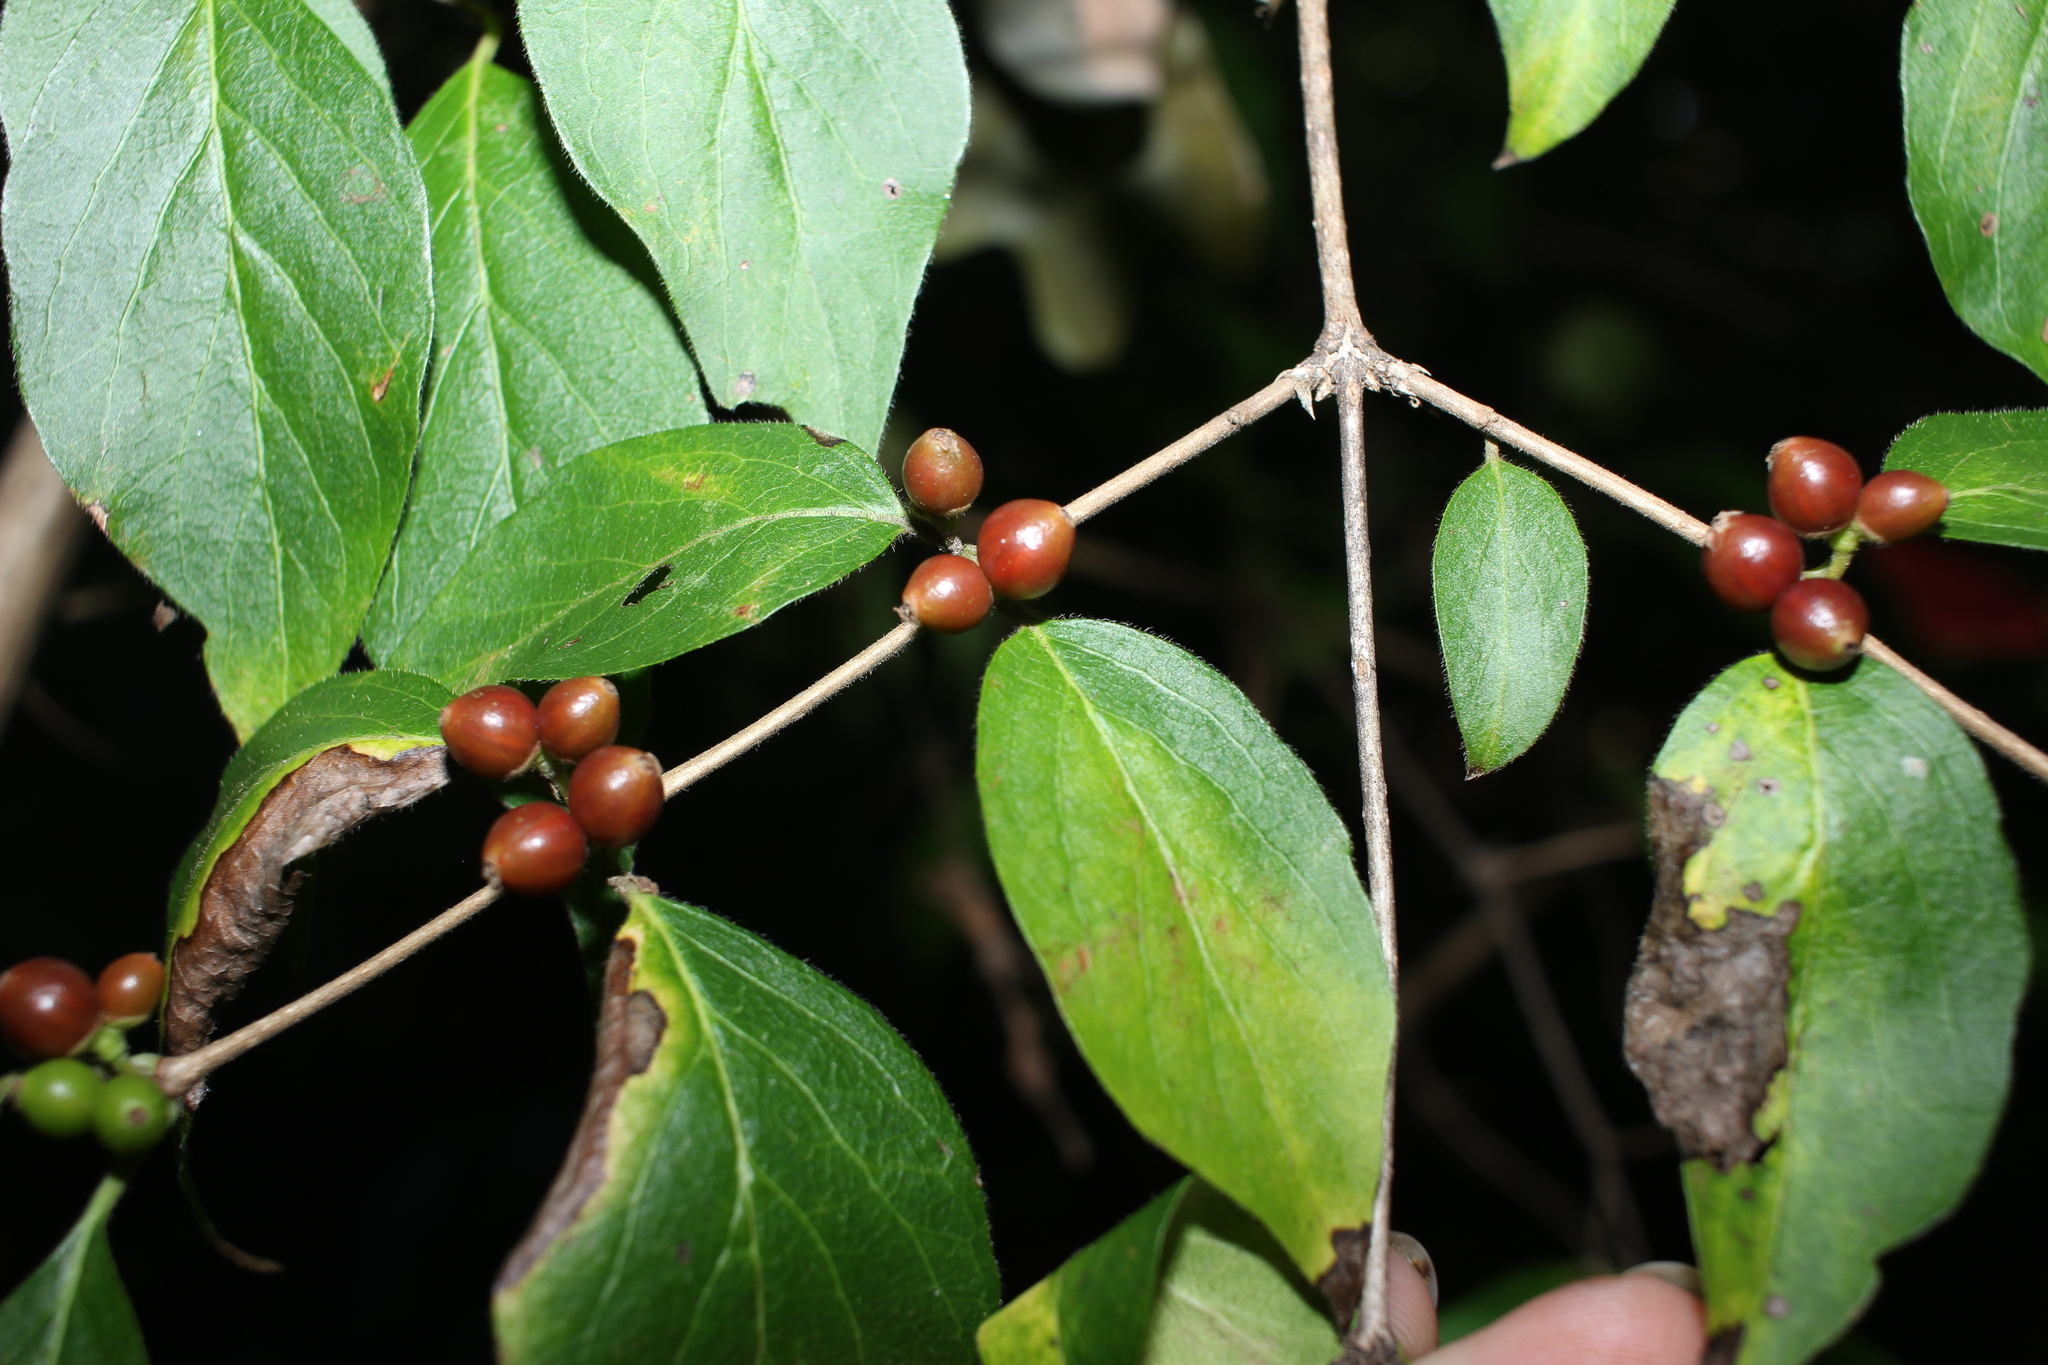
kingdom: Plantae
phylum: Tracheophyta
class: Magnoliopsida
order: Dipsacales
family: Caprifoliaceae
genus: Lonicera
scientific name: Lonicera maackii
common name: Amur honeysuckle
